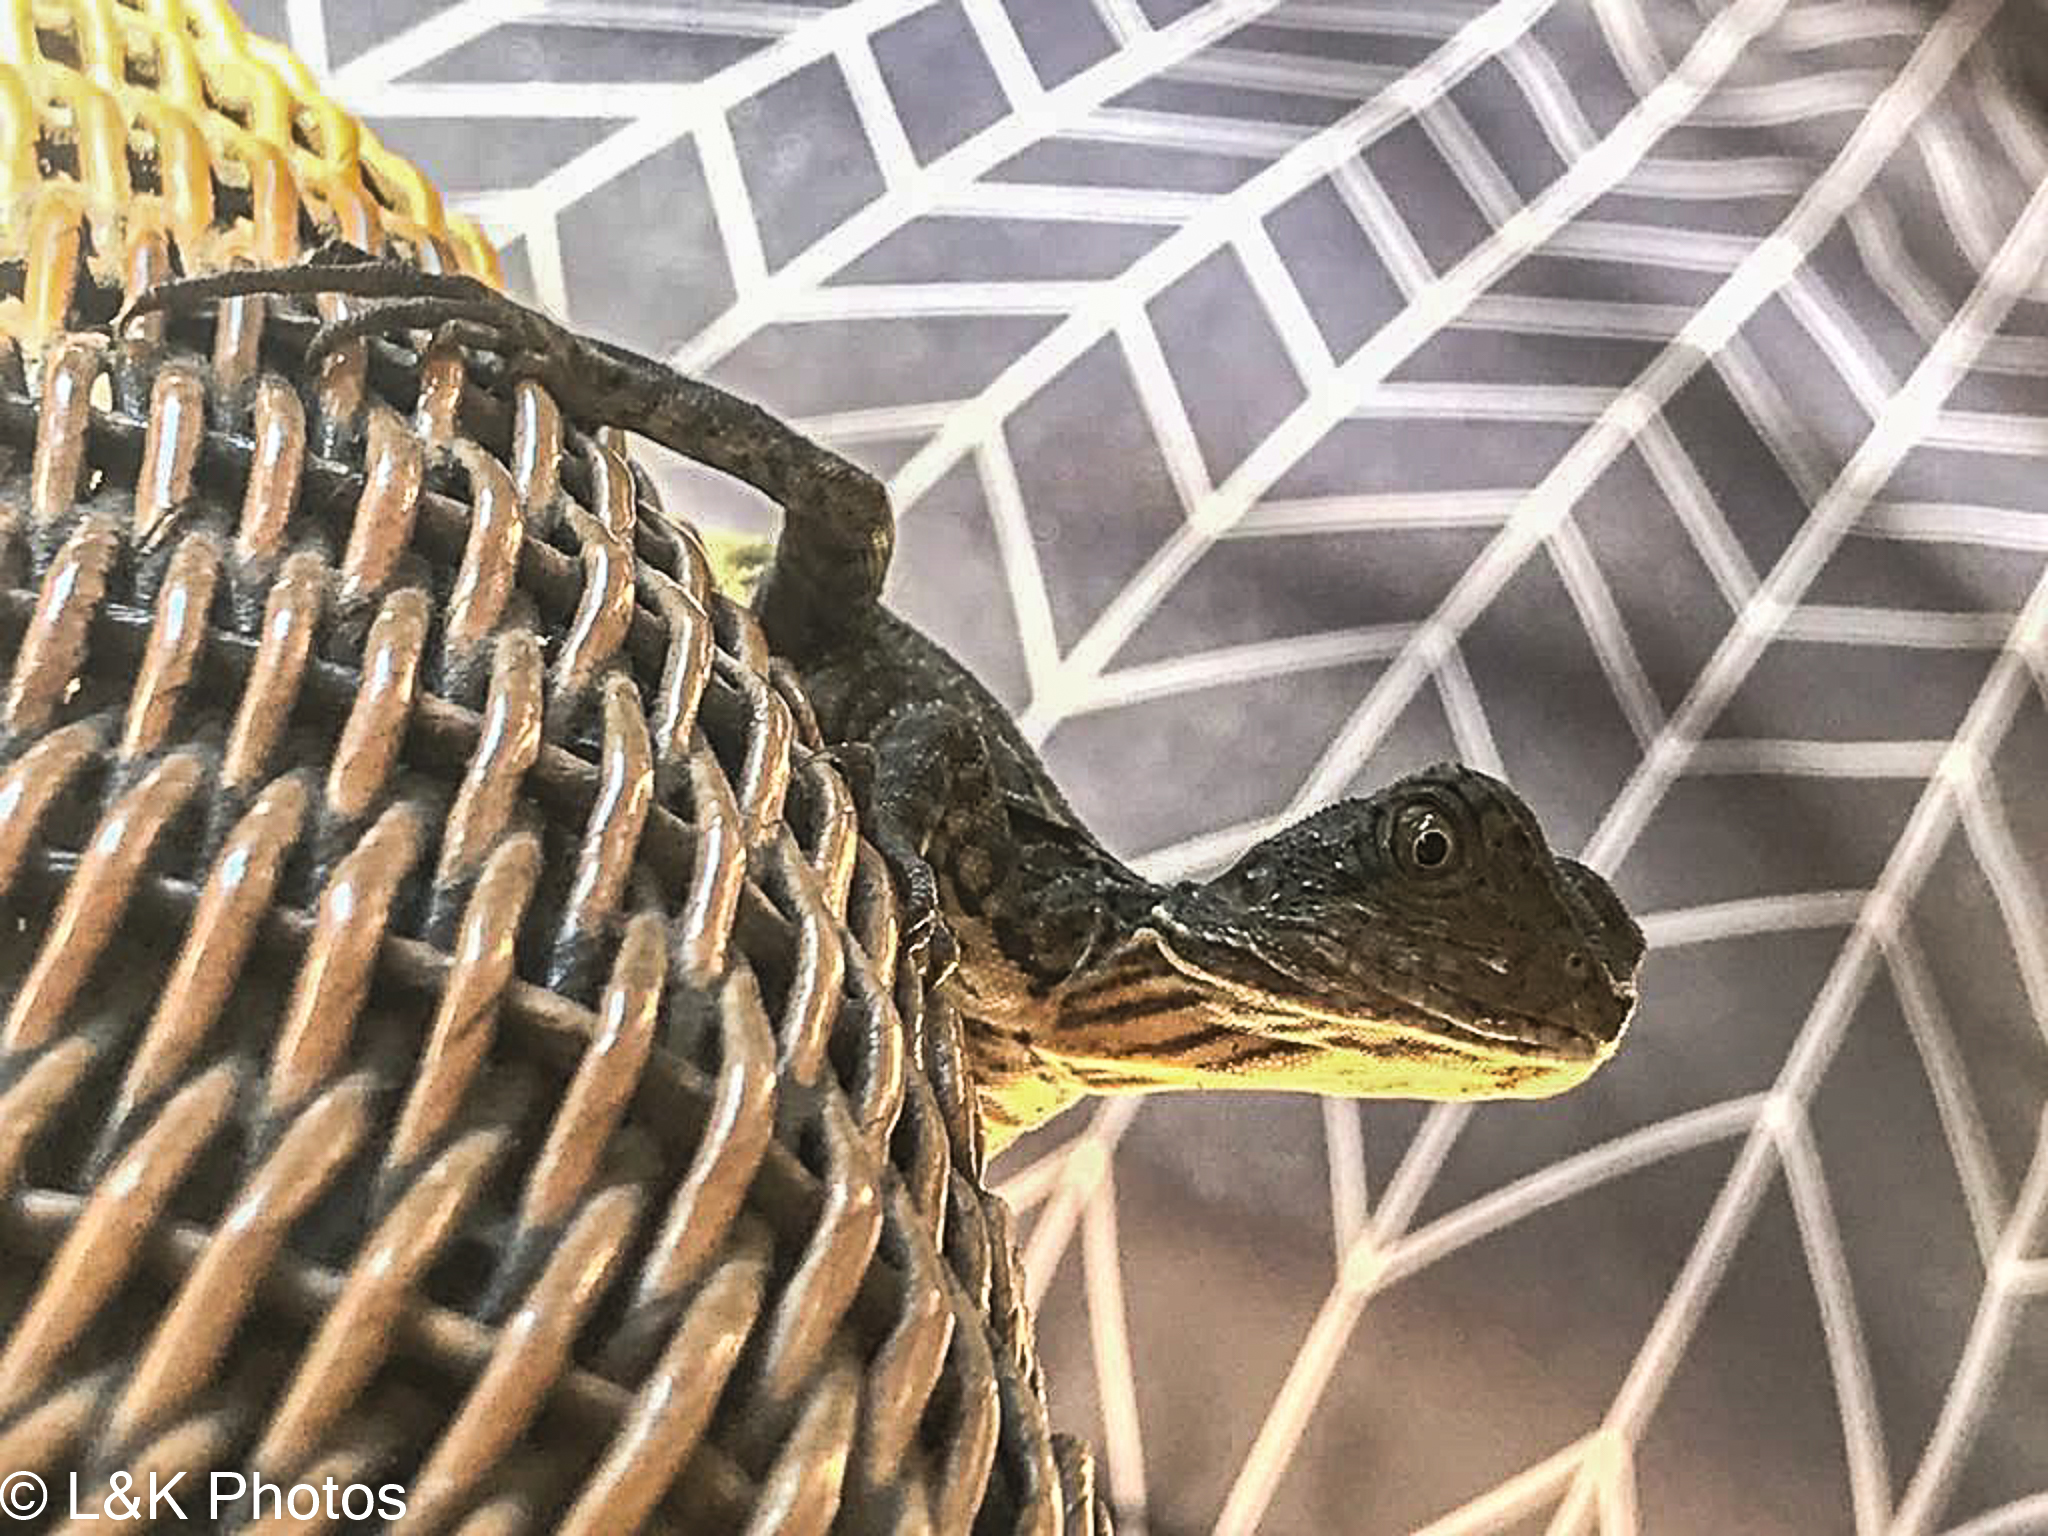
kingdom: Animalia
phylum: Chordata
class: Squamata
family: Agamidae
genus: Intellagama
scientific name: Intellagama lesueurii
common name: Eastern water dragon
